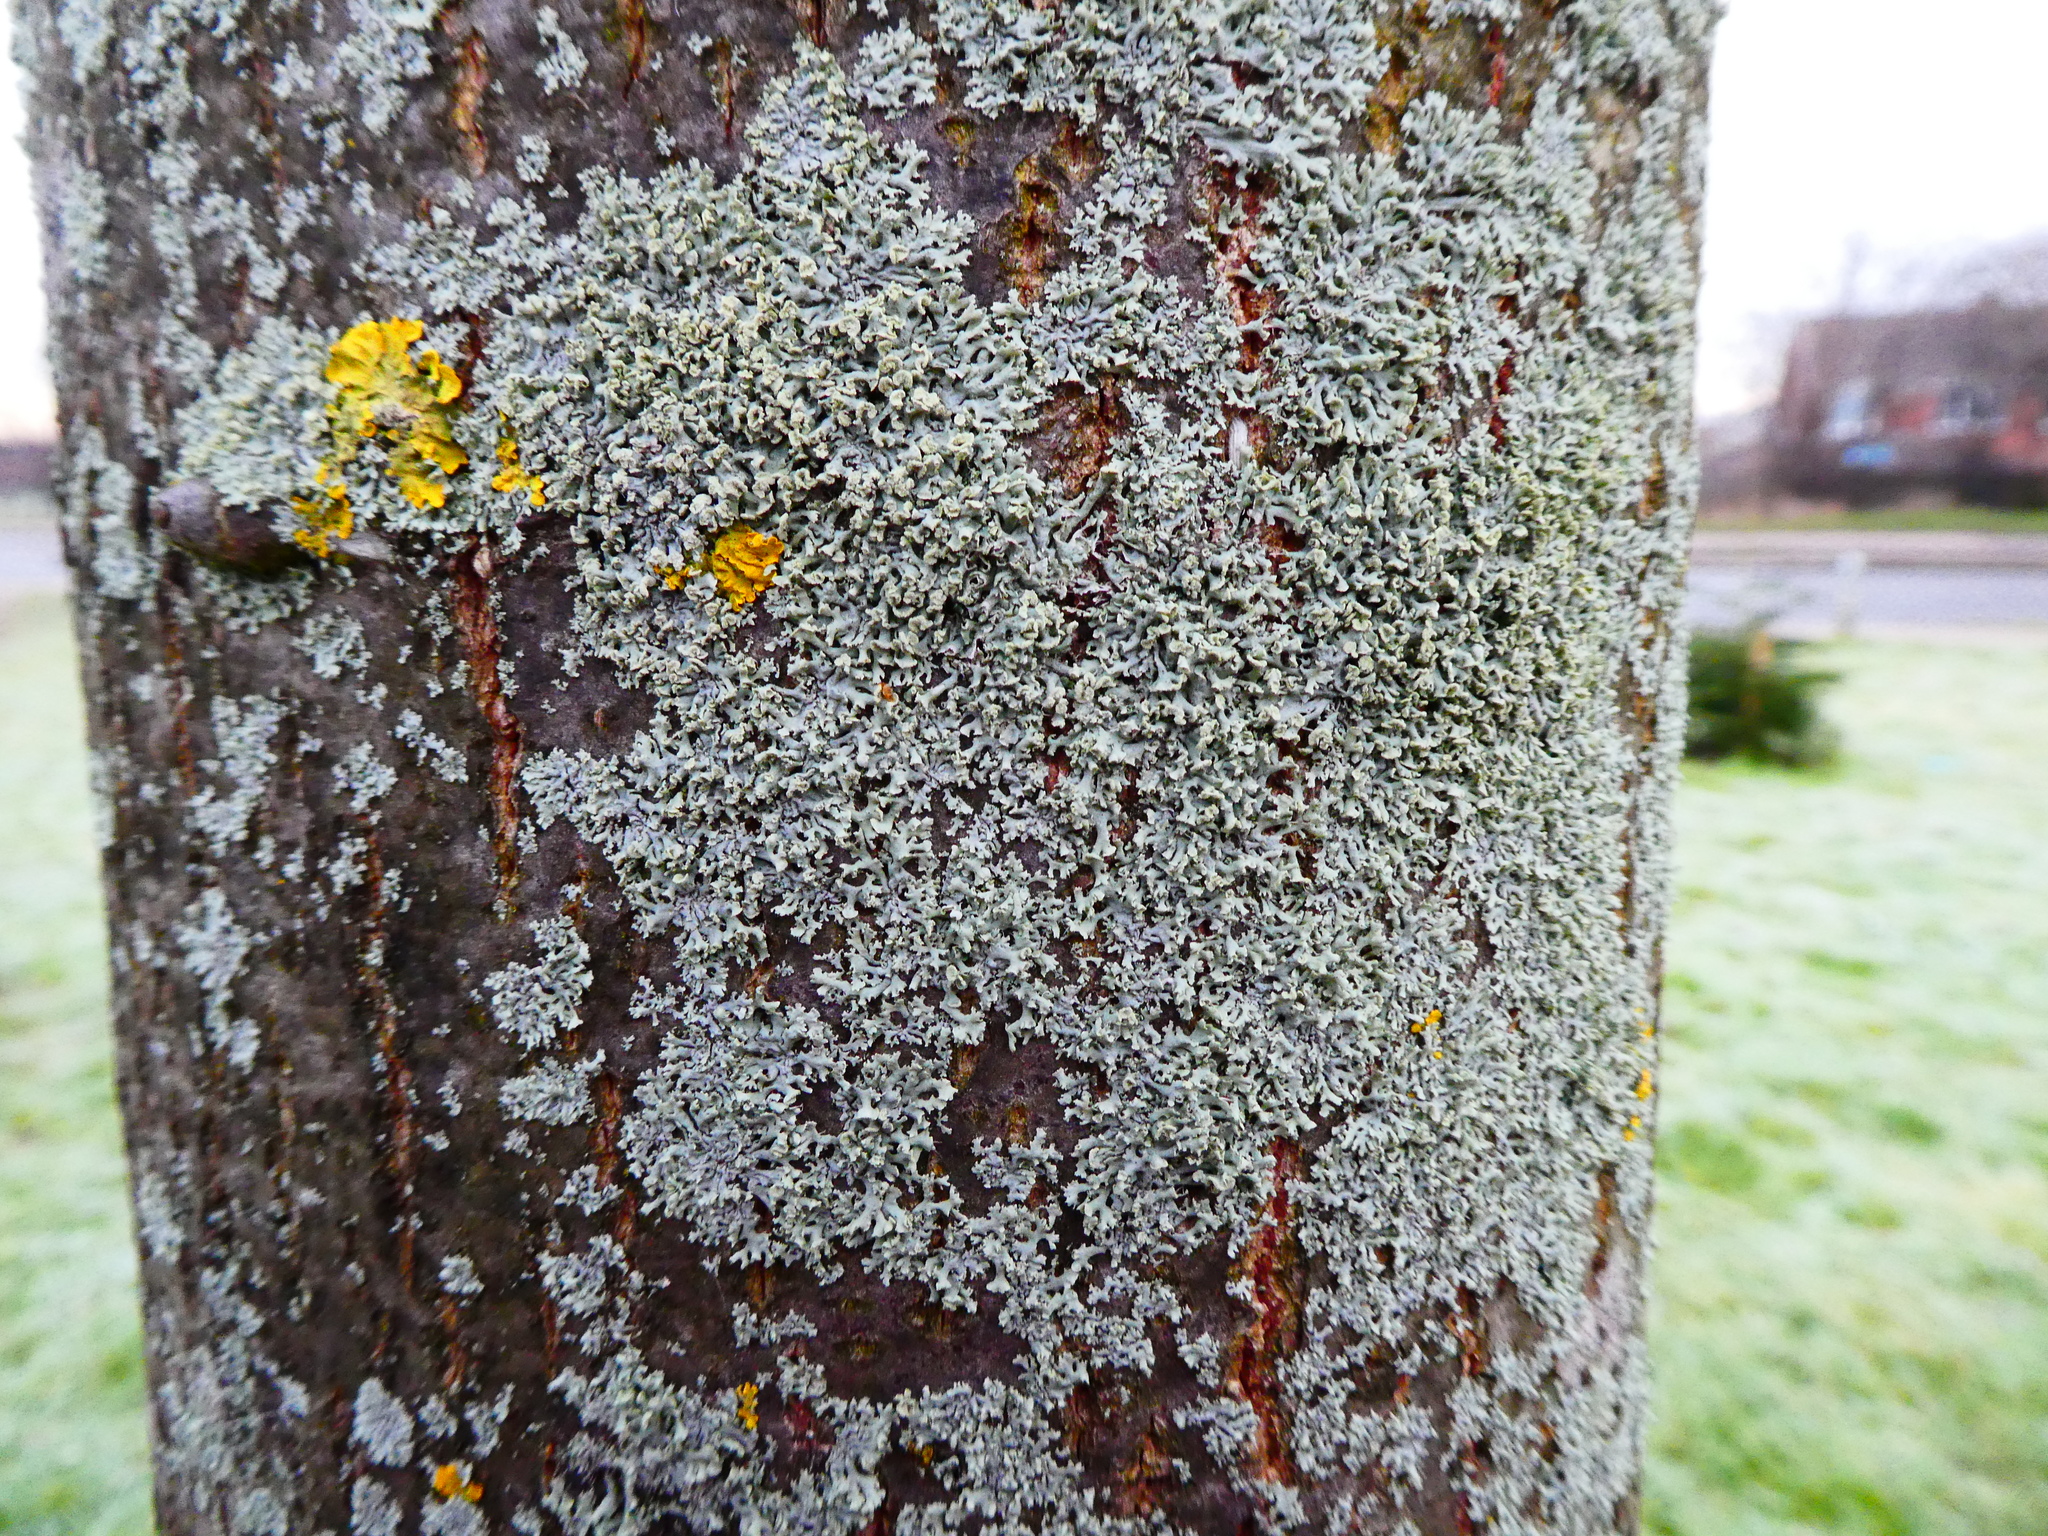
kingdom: Fungi
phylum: Ascomycota
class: Lecanoromycetes
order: Caliciales
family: Physciaceae
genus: Physcia
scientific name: Physcia tenella
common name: Fringed rosette lichen
